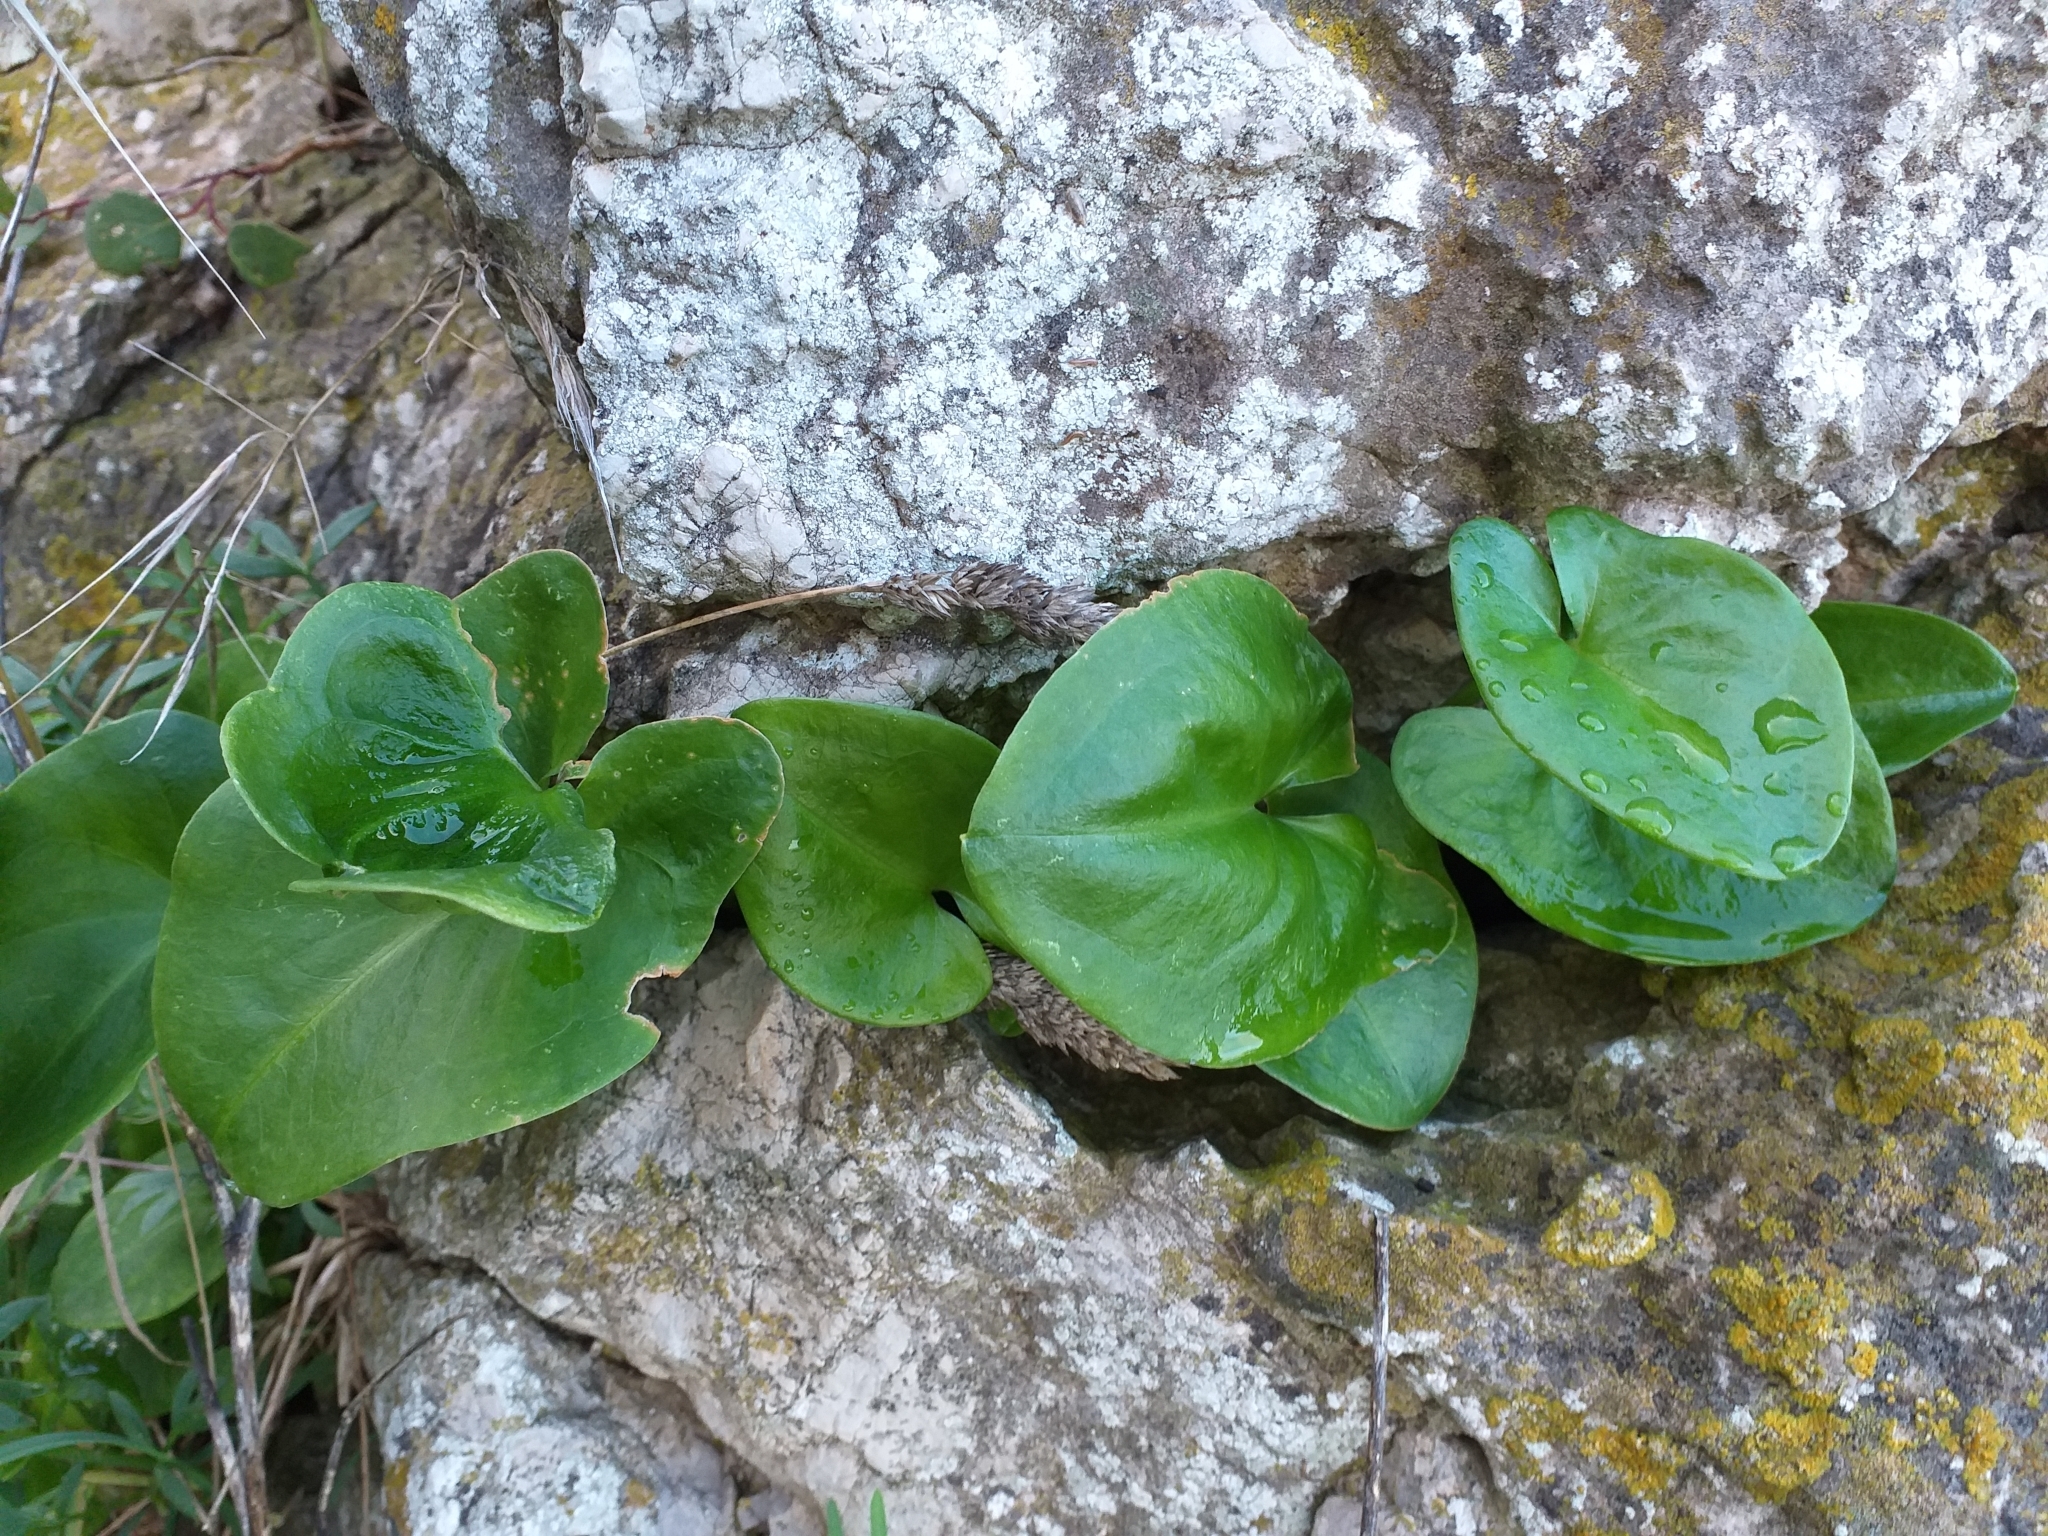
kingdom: Plantae
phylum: Tracheophyta
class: Liliopsida
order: Alismatales
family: Araceae
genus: Arisarum
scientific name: Arisarum vulgare
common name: Common arisarum
